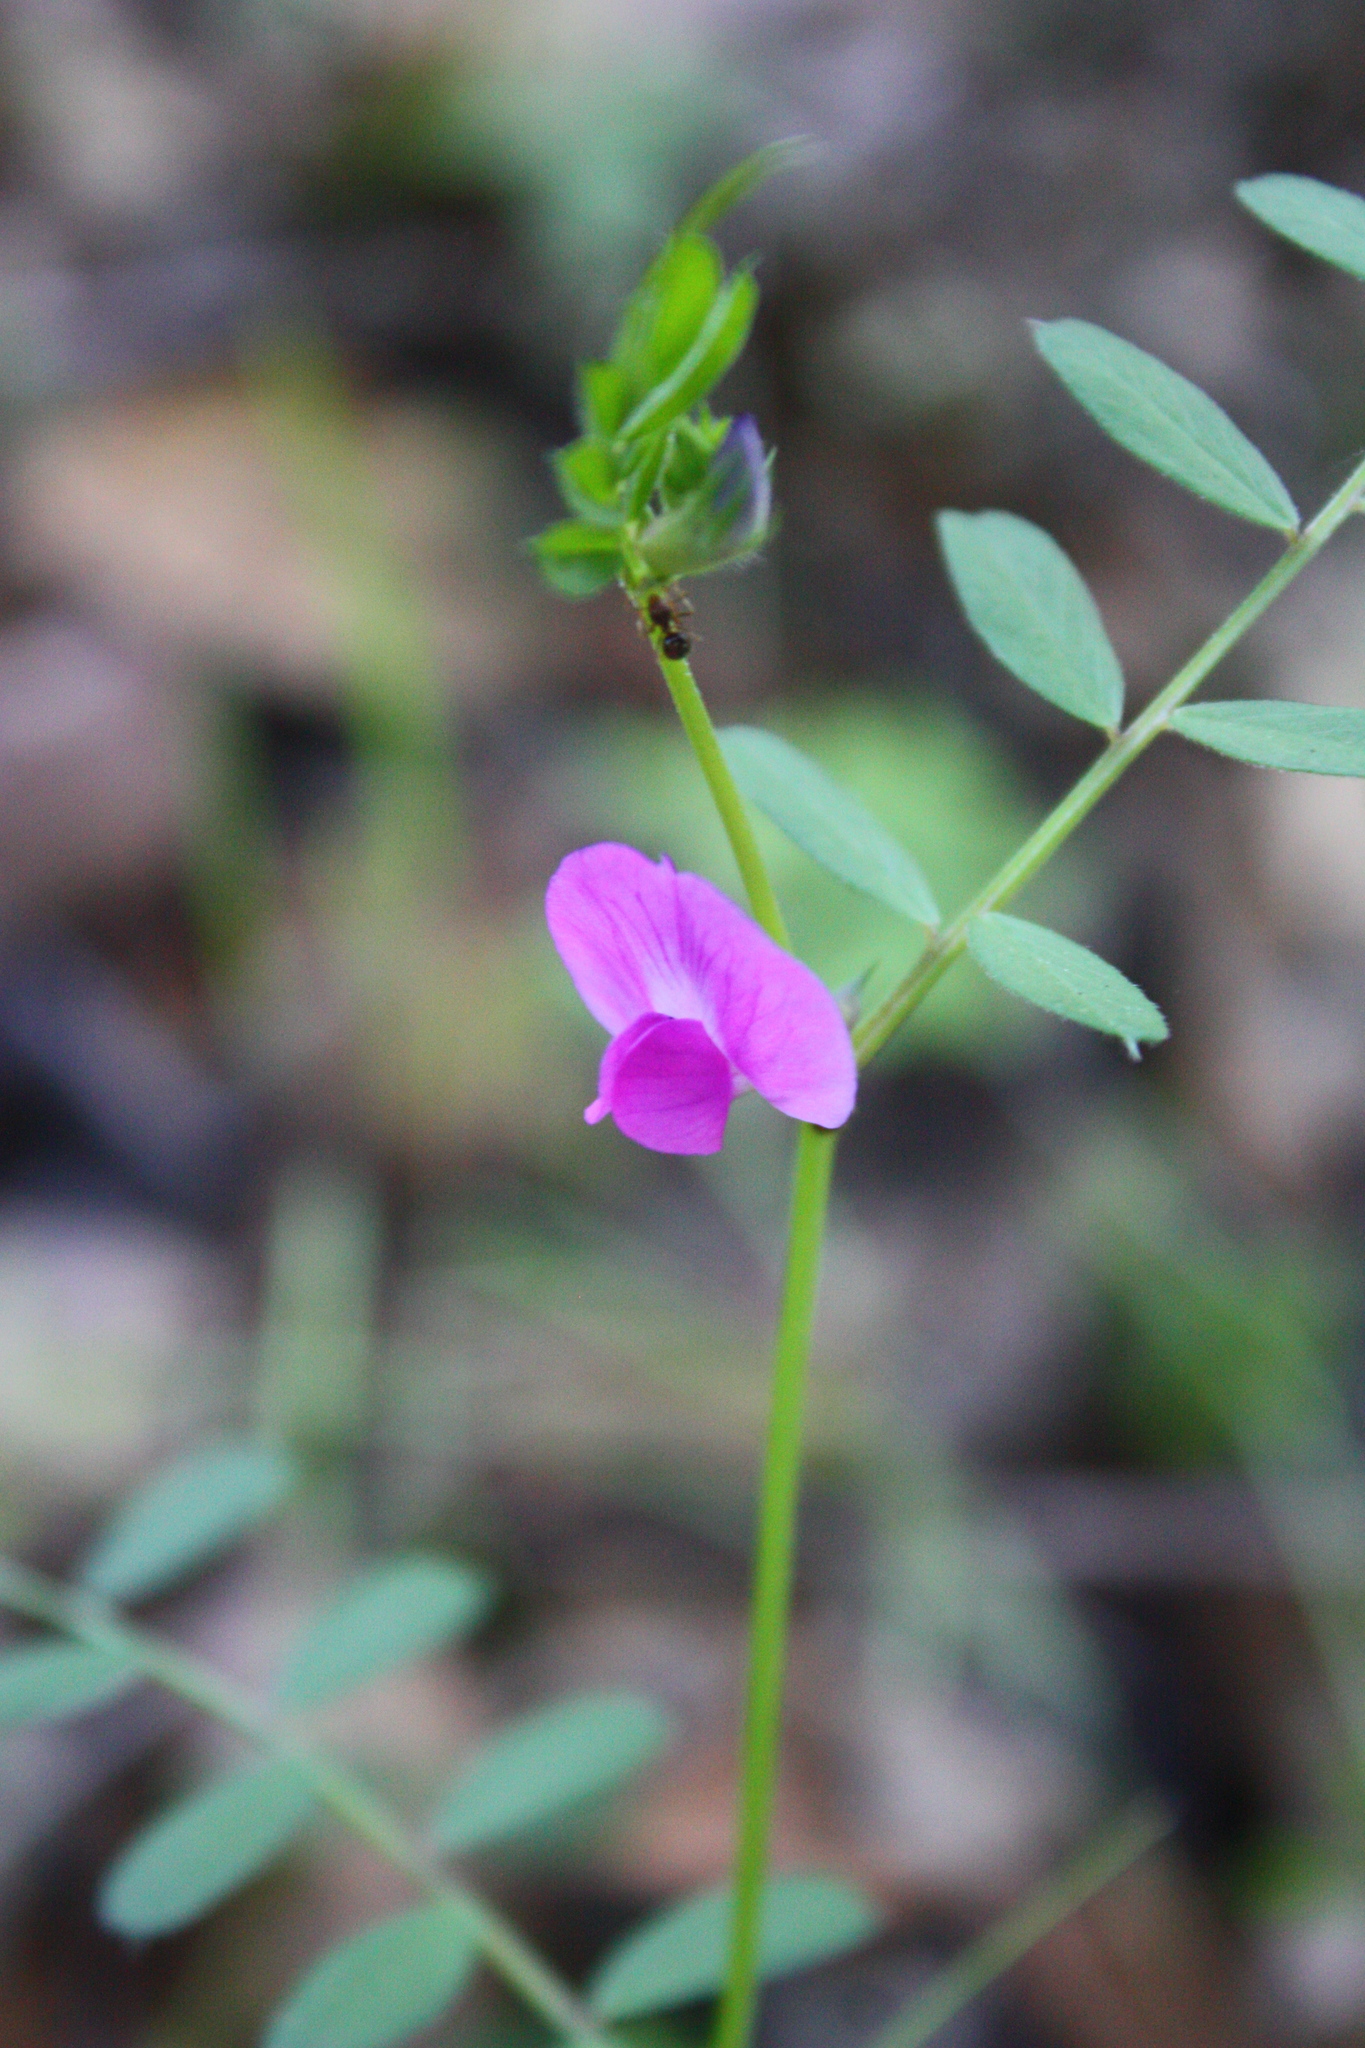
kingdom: Plantae
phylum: Tracheophyta
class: Magnoliopsida
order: Fabales
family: Fabaceae
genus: Vicia
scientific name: Vicia sativa
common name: Garden vetch
